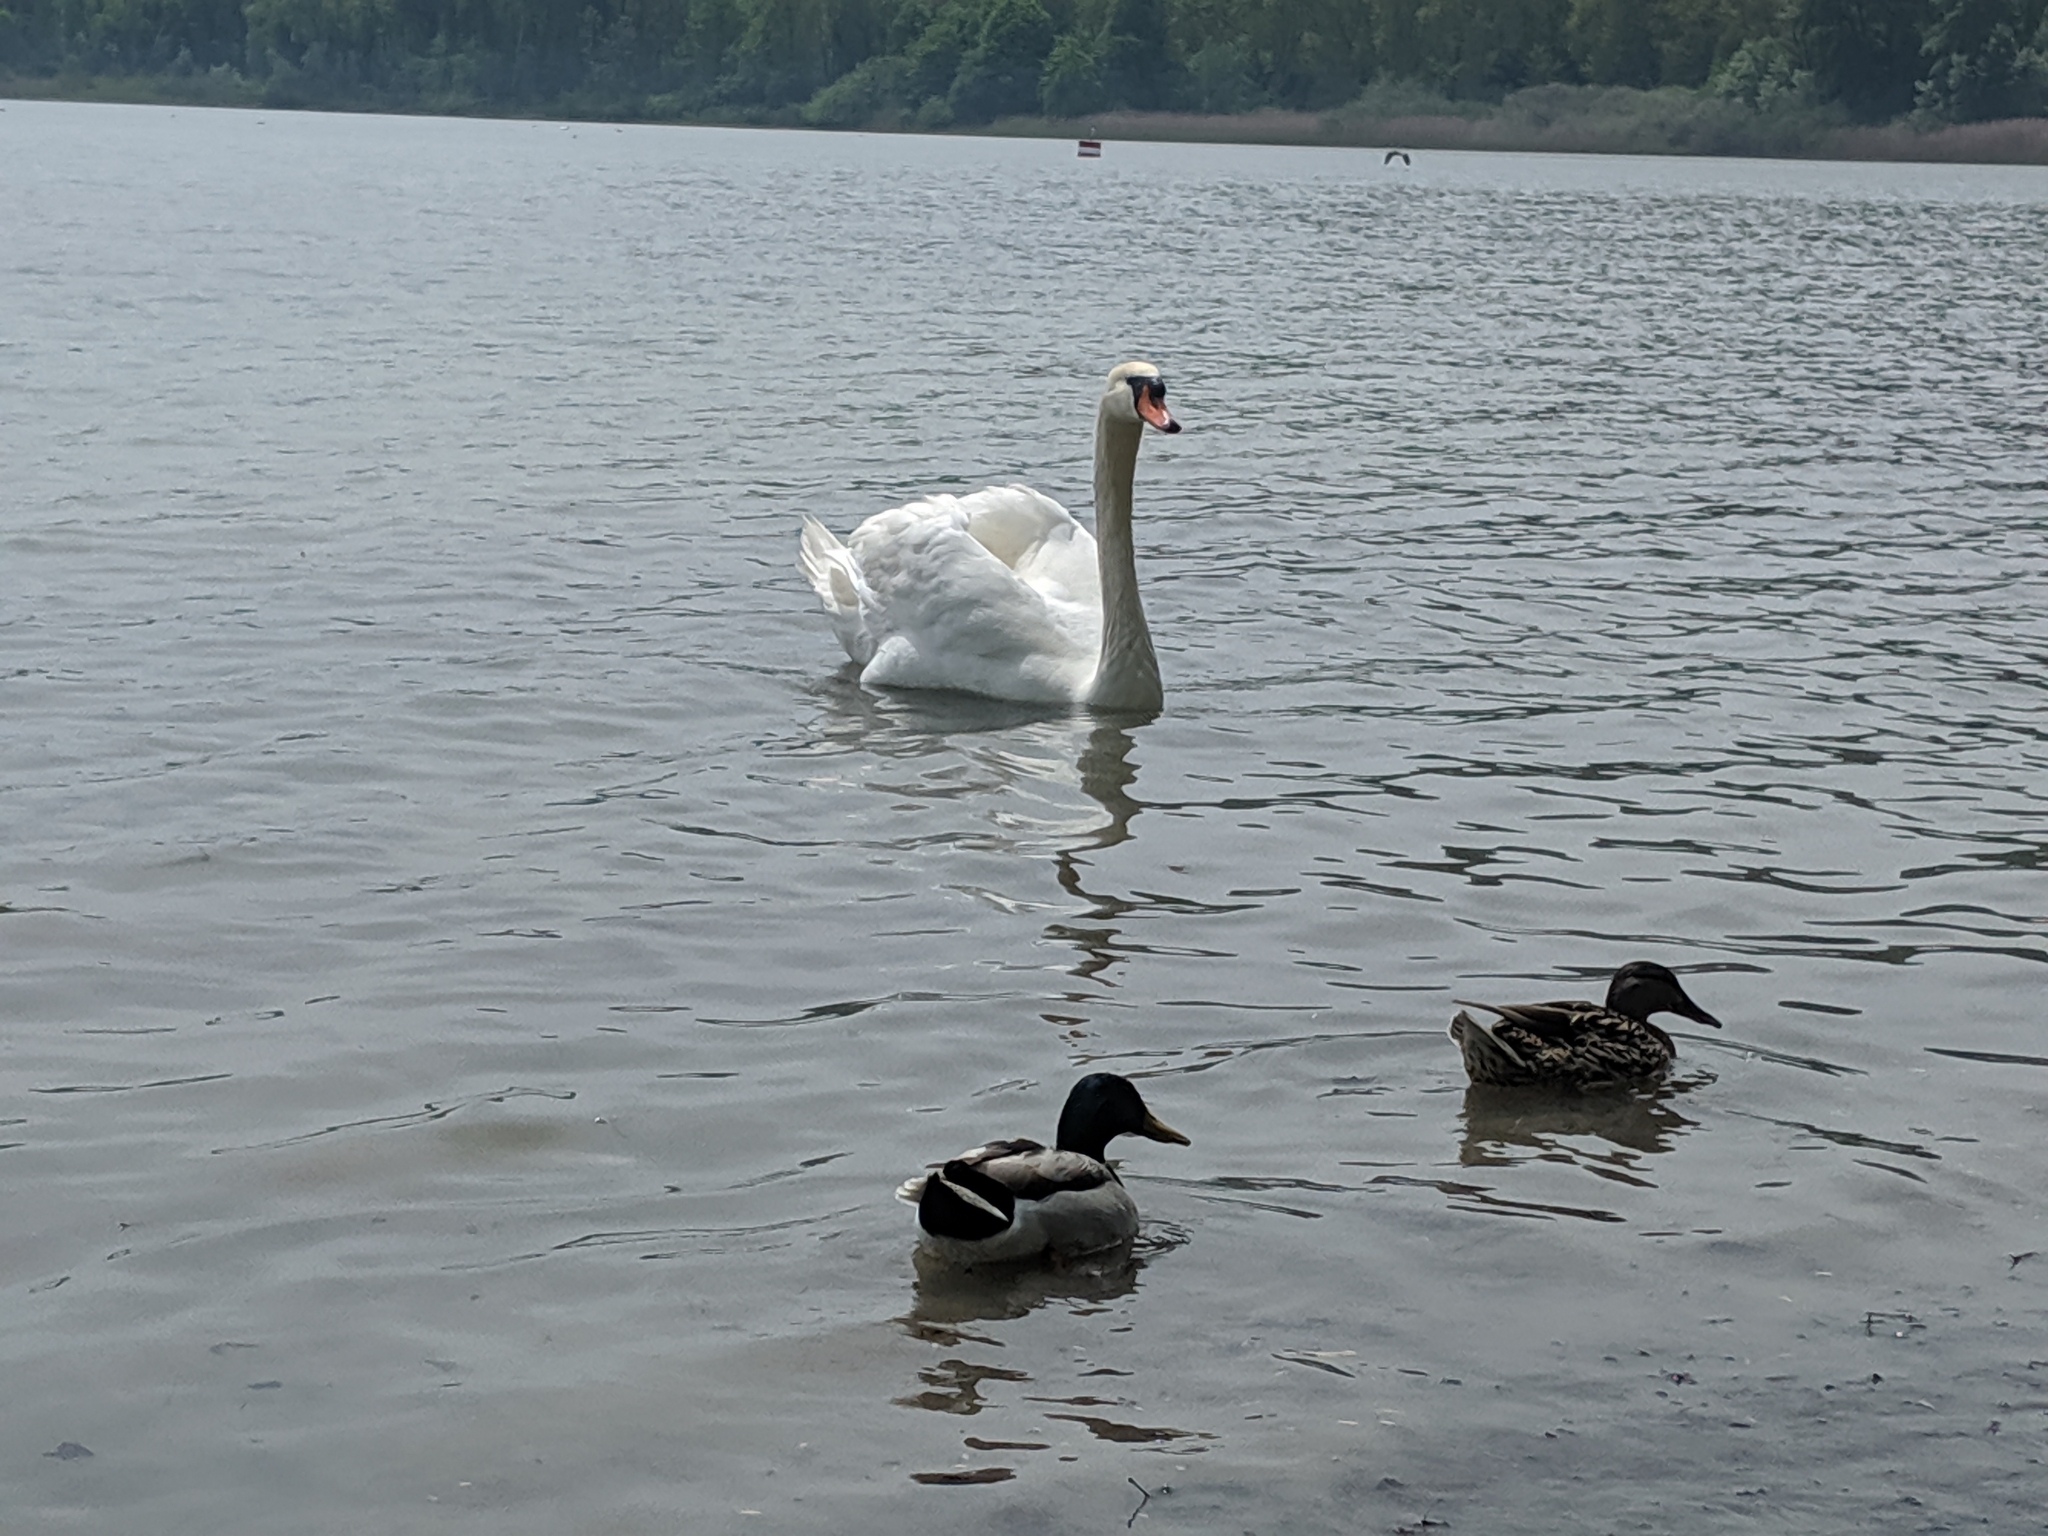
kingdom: Animalia
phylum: Chordata
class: Aves
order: Anseriformes
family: Anatidae
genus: Cygnus
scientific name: Cygnus olor
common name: Mute swan
